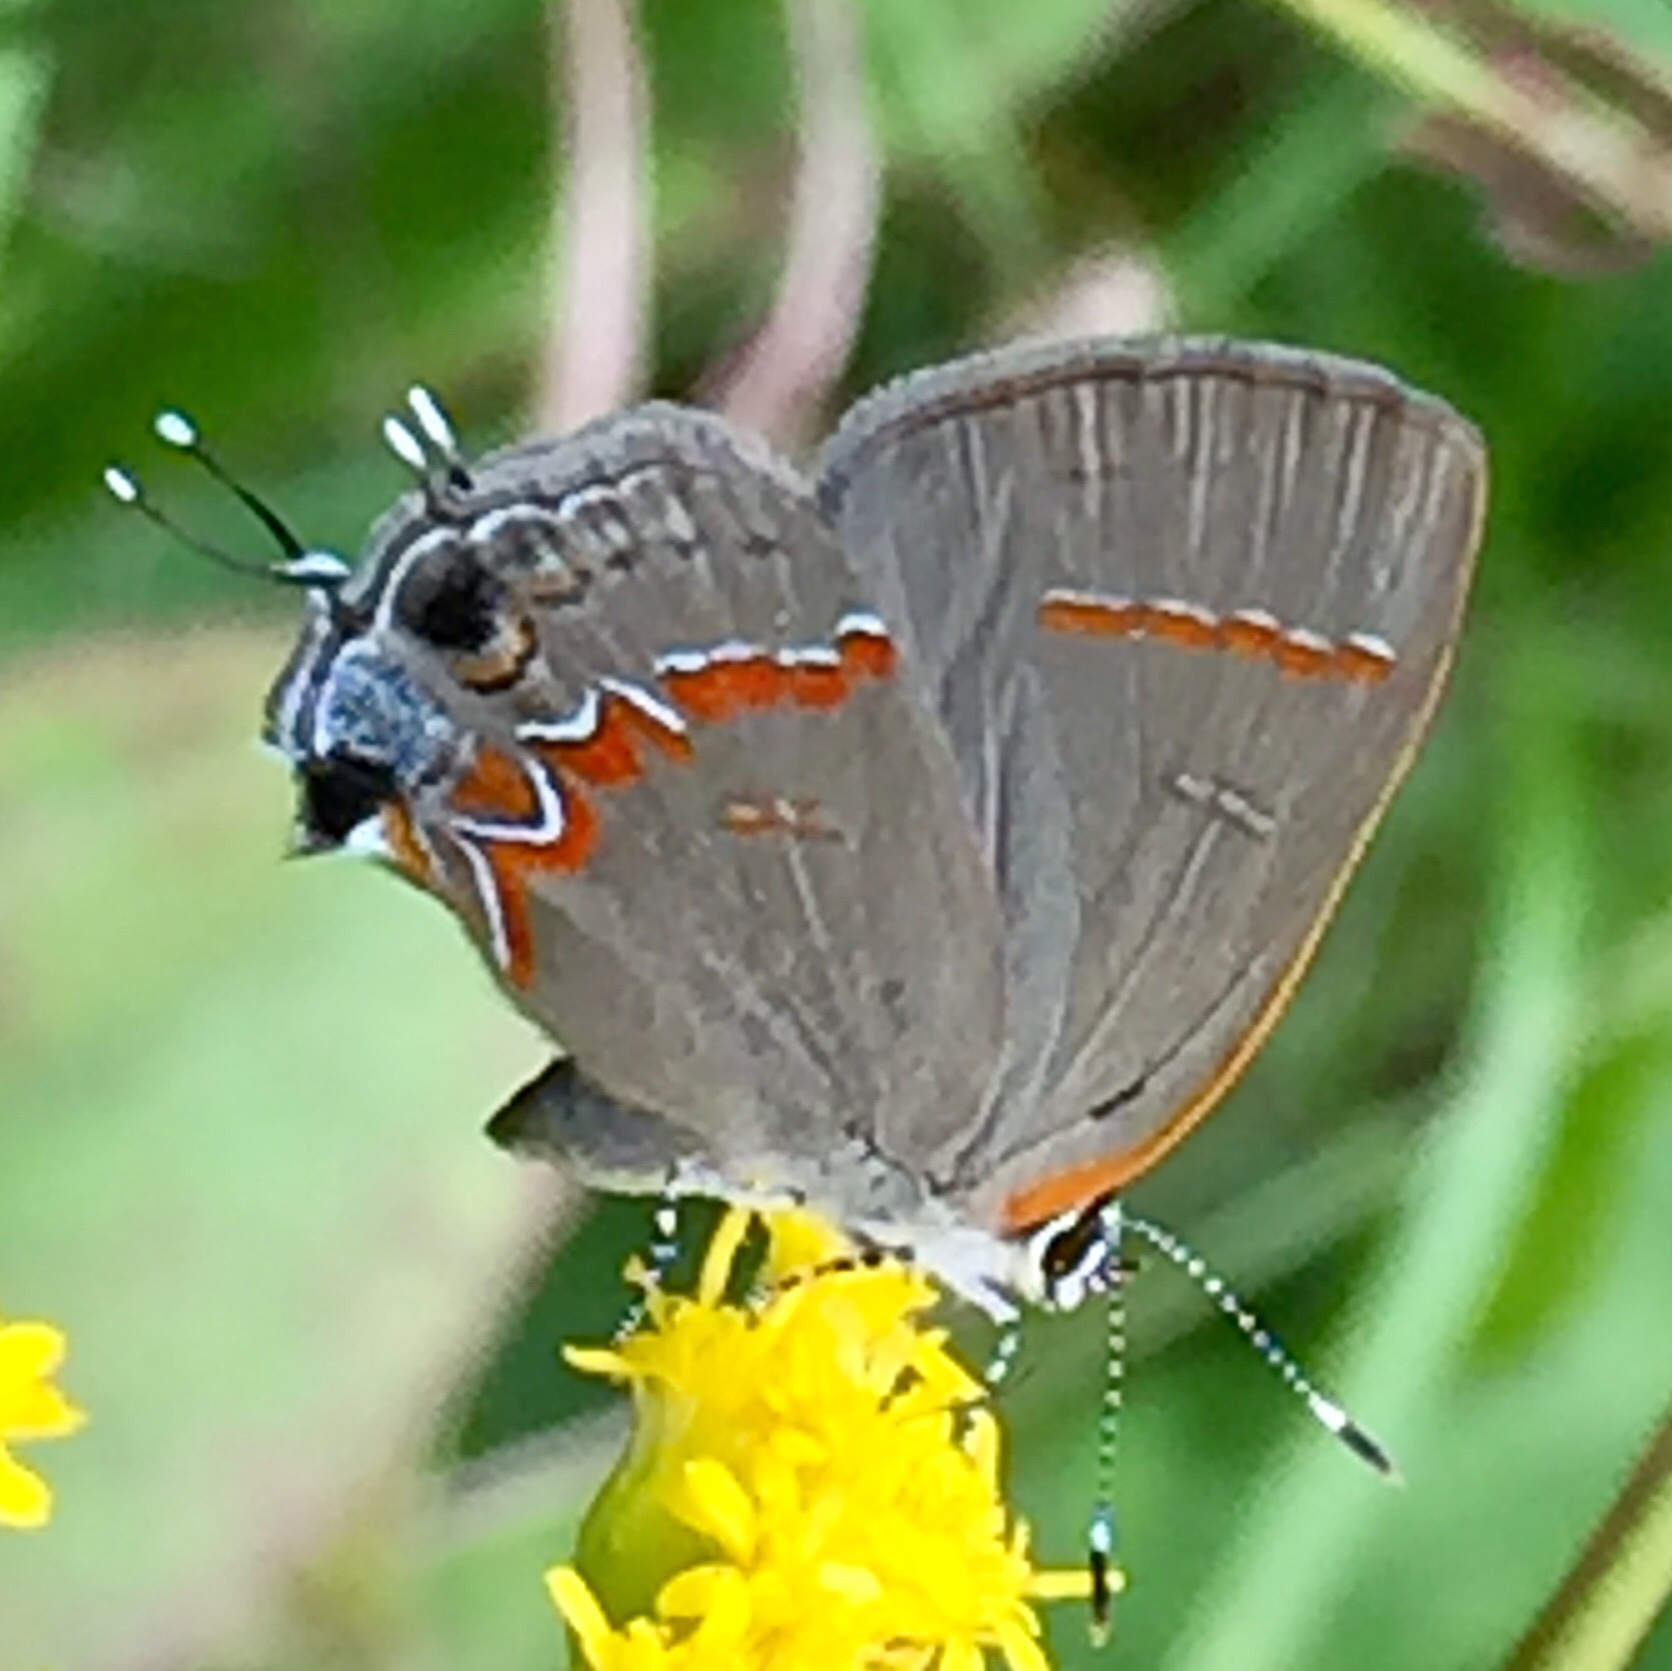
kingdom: Animalia
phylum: Arthropoda
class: Insecta
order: Lepidoptera
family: Lycaenidae
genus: Calycopis
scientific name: Calycopis cecrops
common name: Red-banded hairstreak
